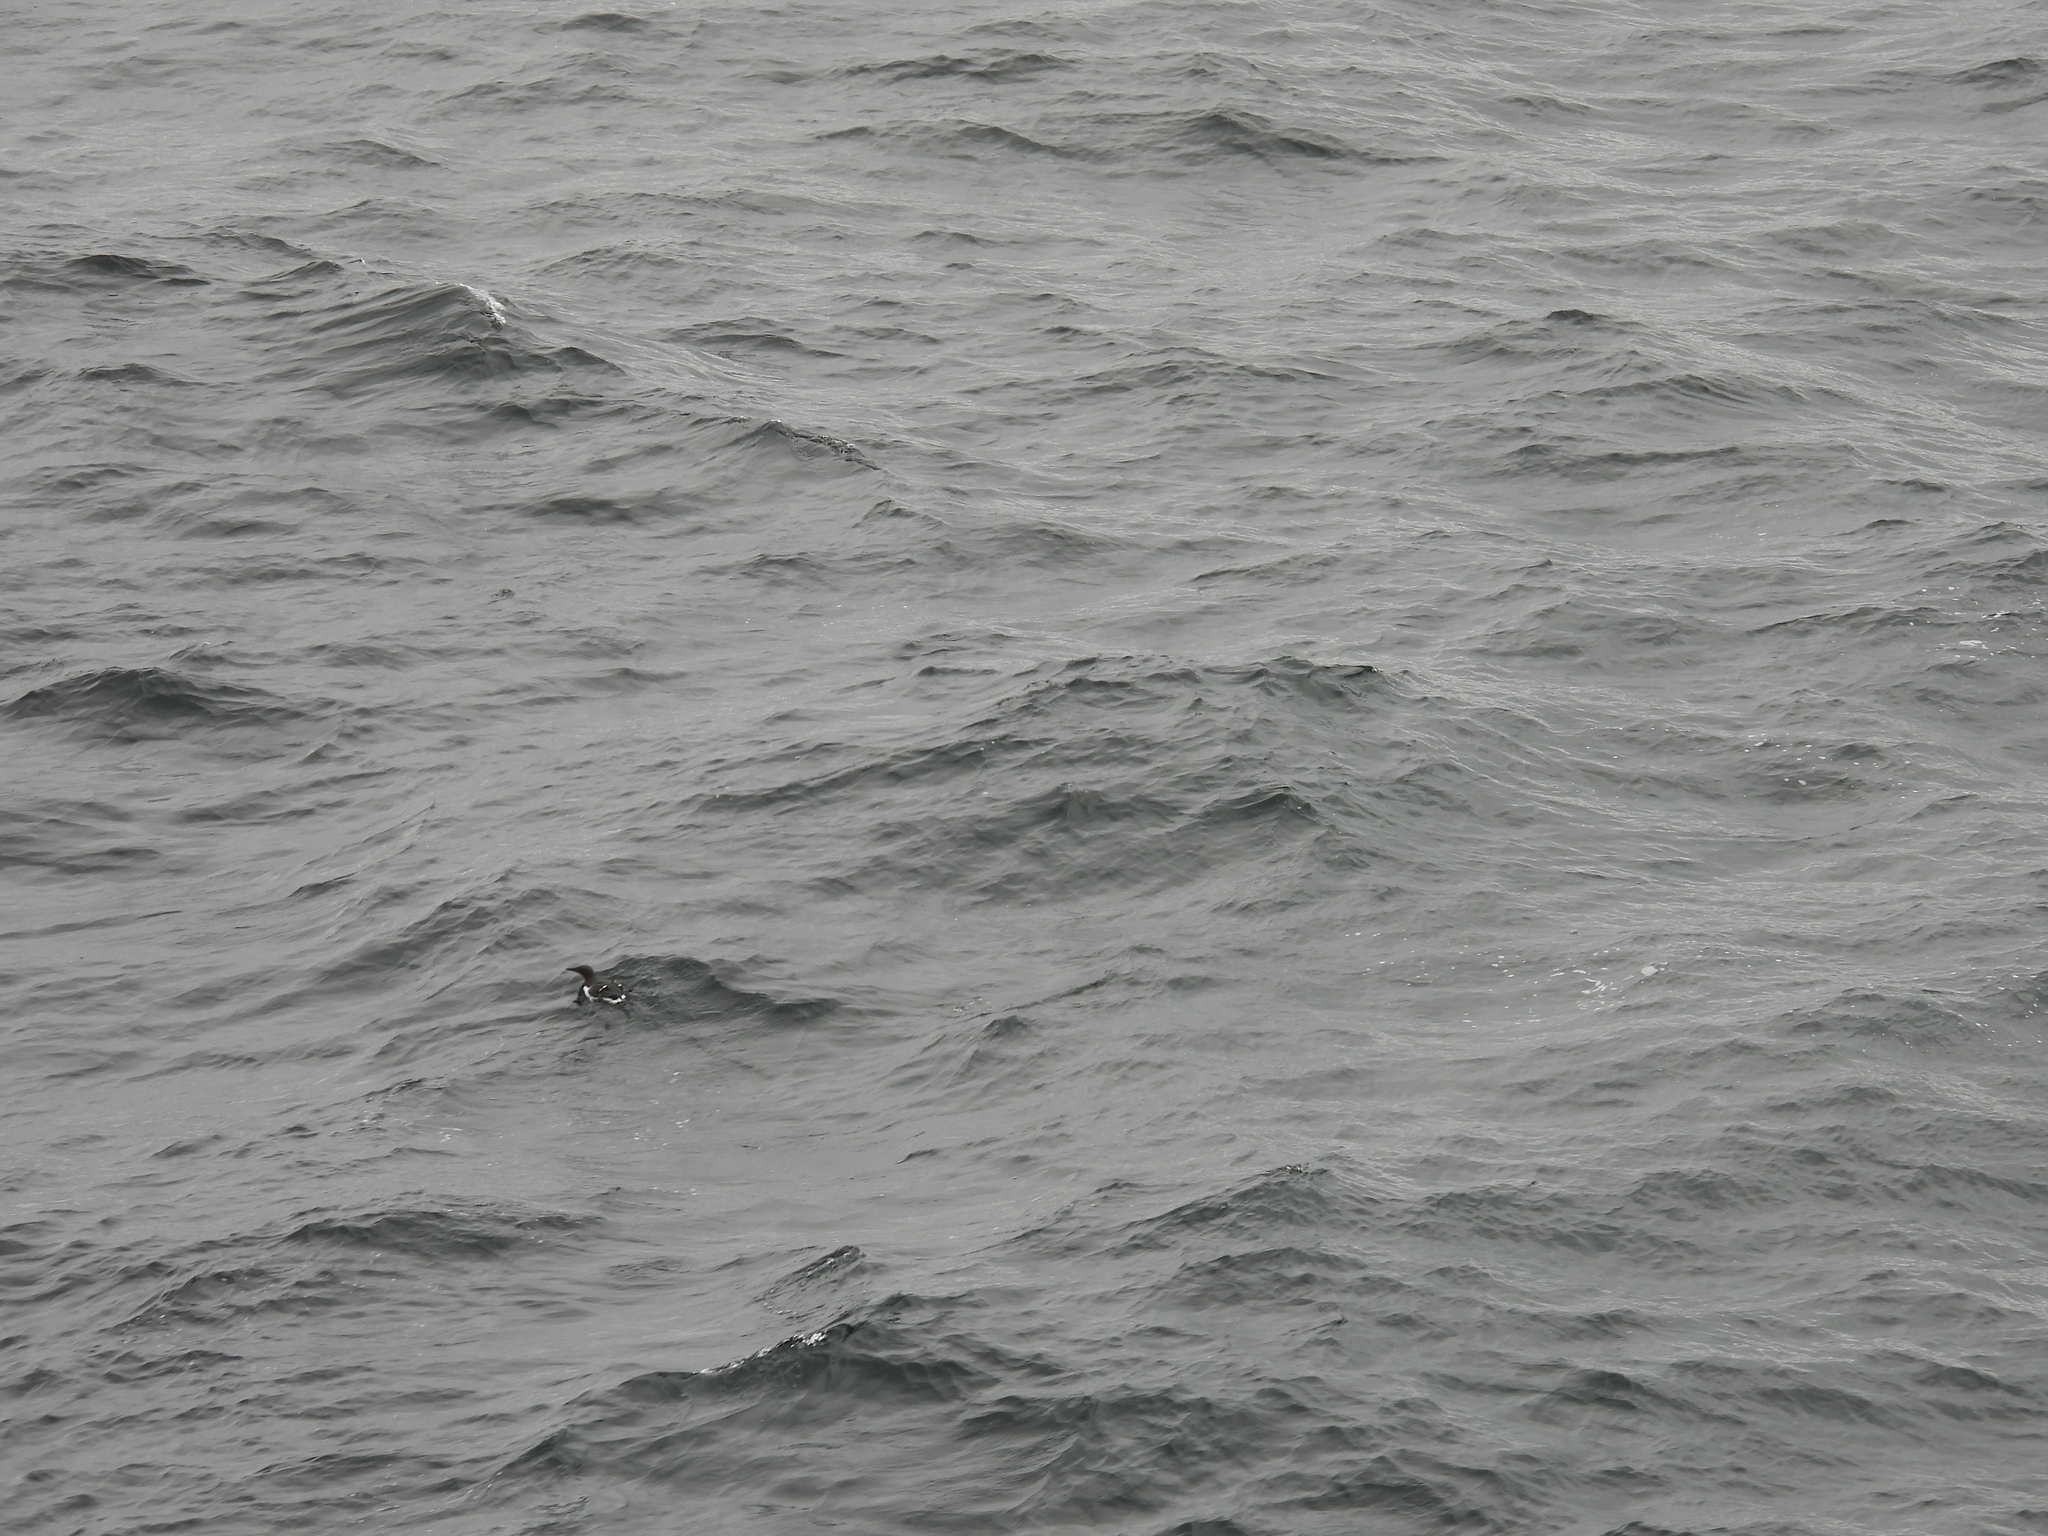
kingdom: Animalia
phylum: Chordata
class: Aves
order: Charadriiformes
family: Alcidae
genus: Uria
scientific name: Uria aalge
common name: Common murre
